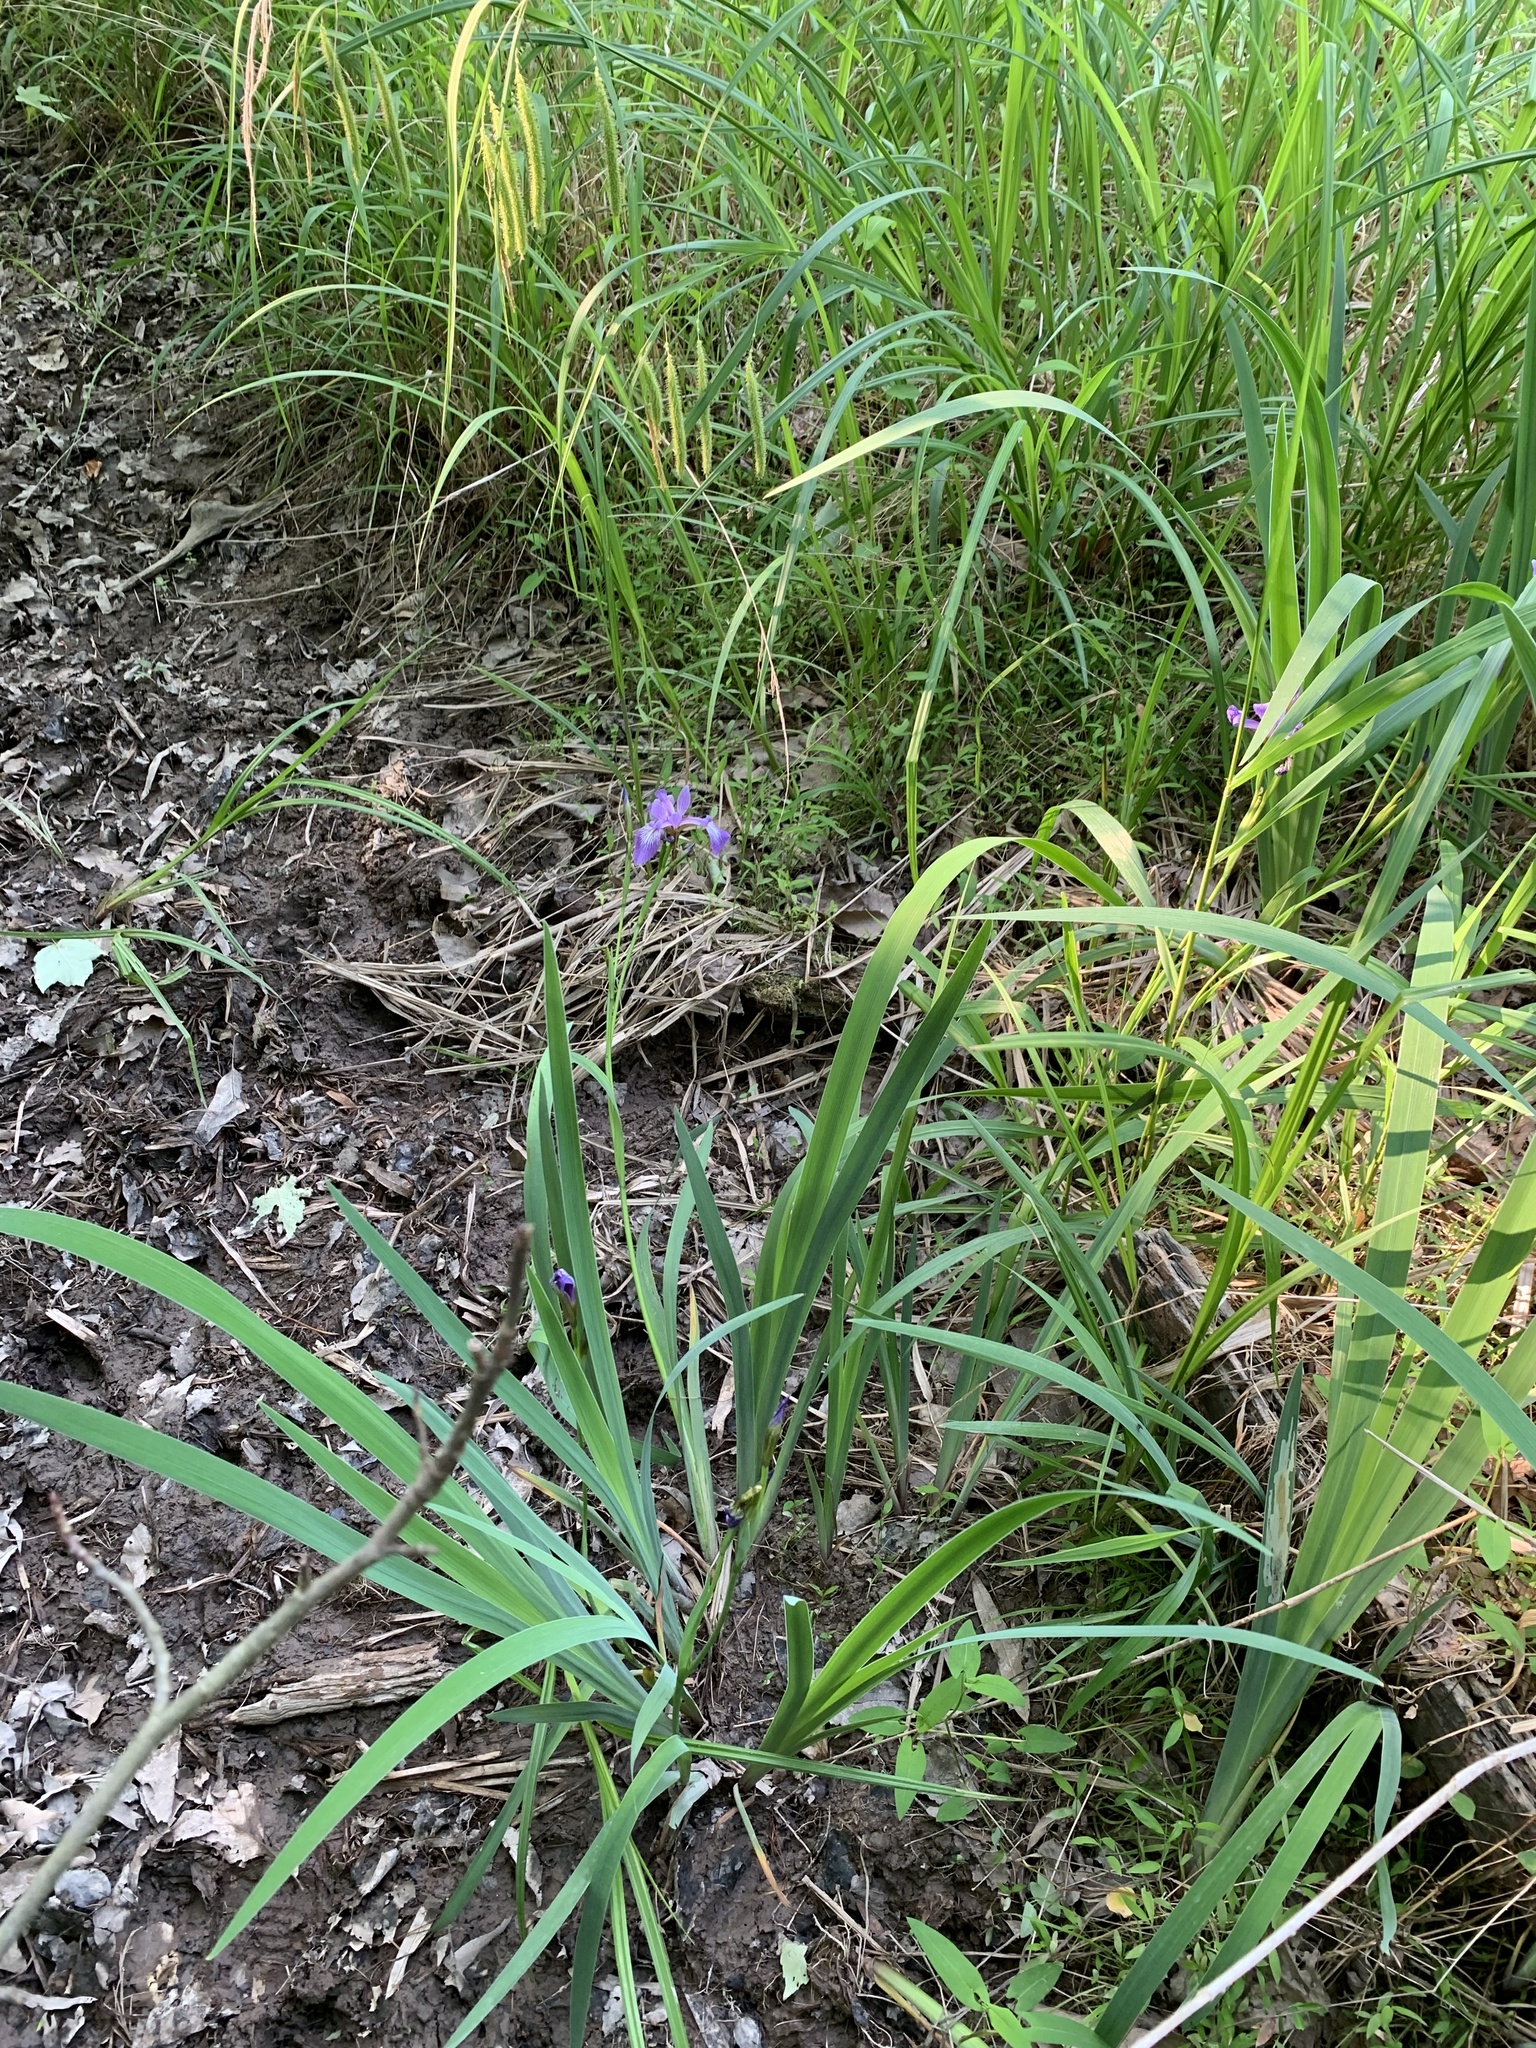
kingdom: Plantae
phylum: Tracheophyta
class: Liliopsida
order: Asparagales
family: Iridaceae
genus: Iris
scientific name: Iris versicolor
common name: Purple iris
